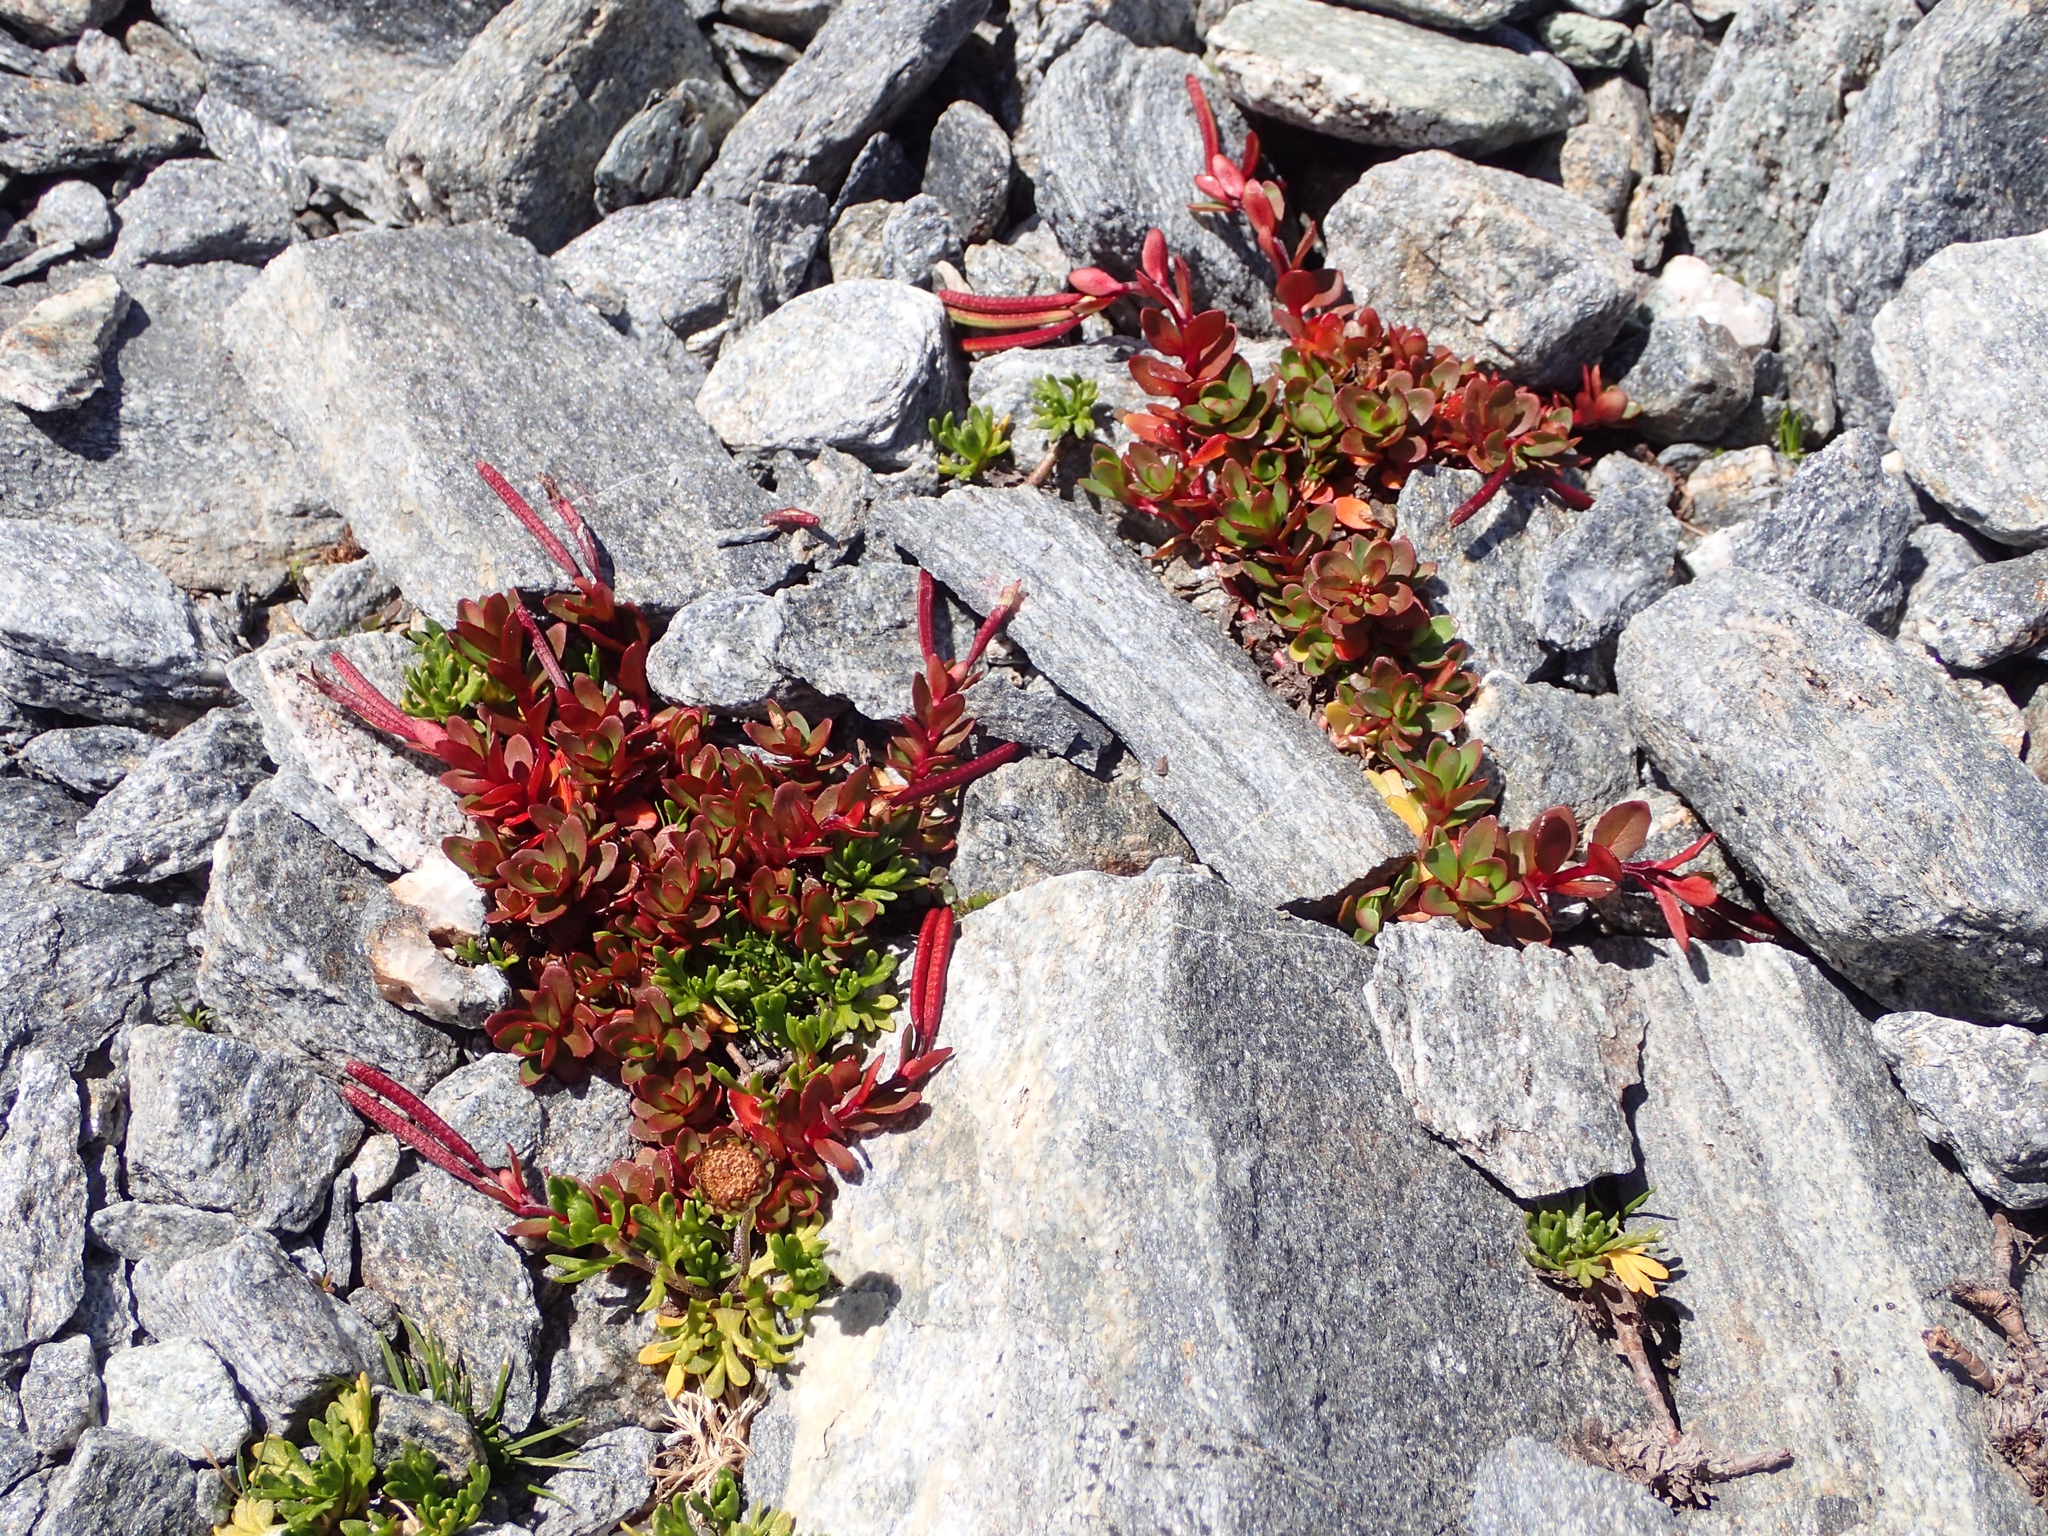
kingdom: Plantae
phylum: Tracheophyta
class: Magnoliopsida
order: Myrtales
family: Onagraceae
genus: Epilobium
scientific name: Epilobium porphyrium
